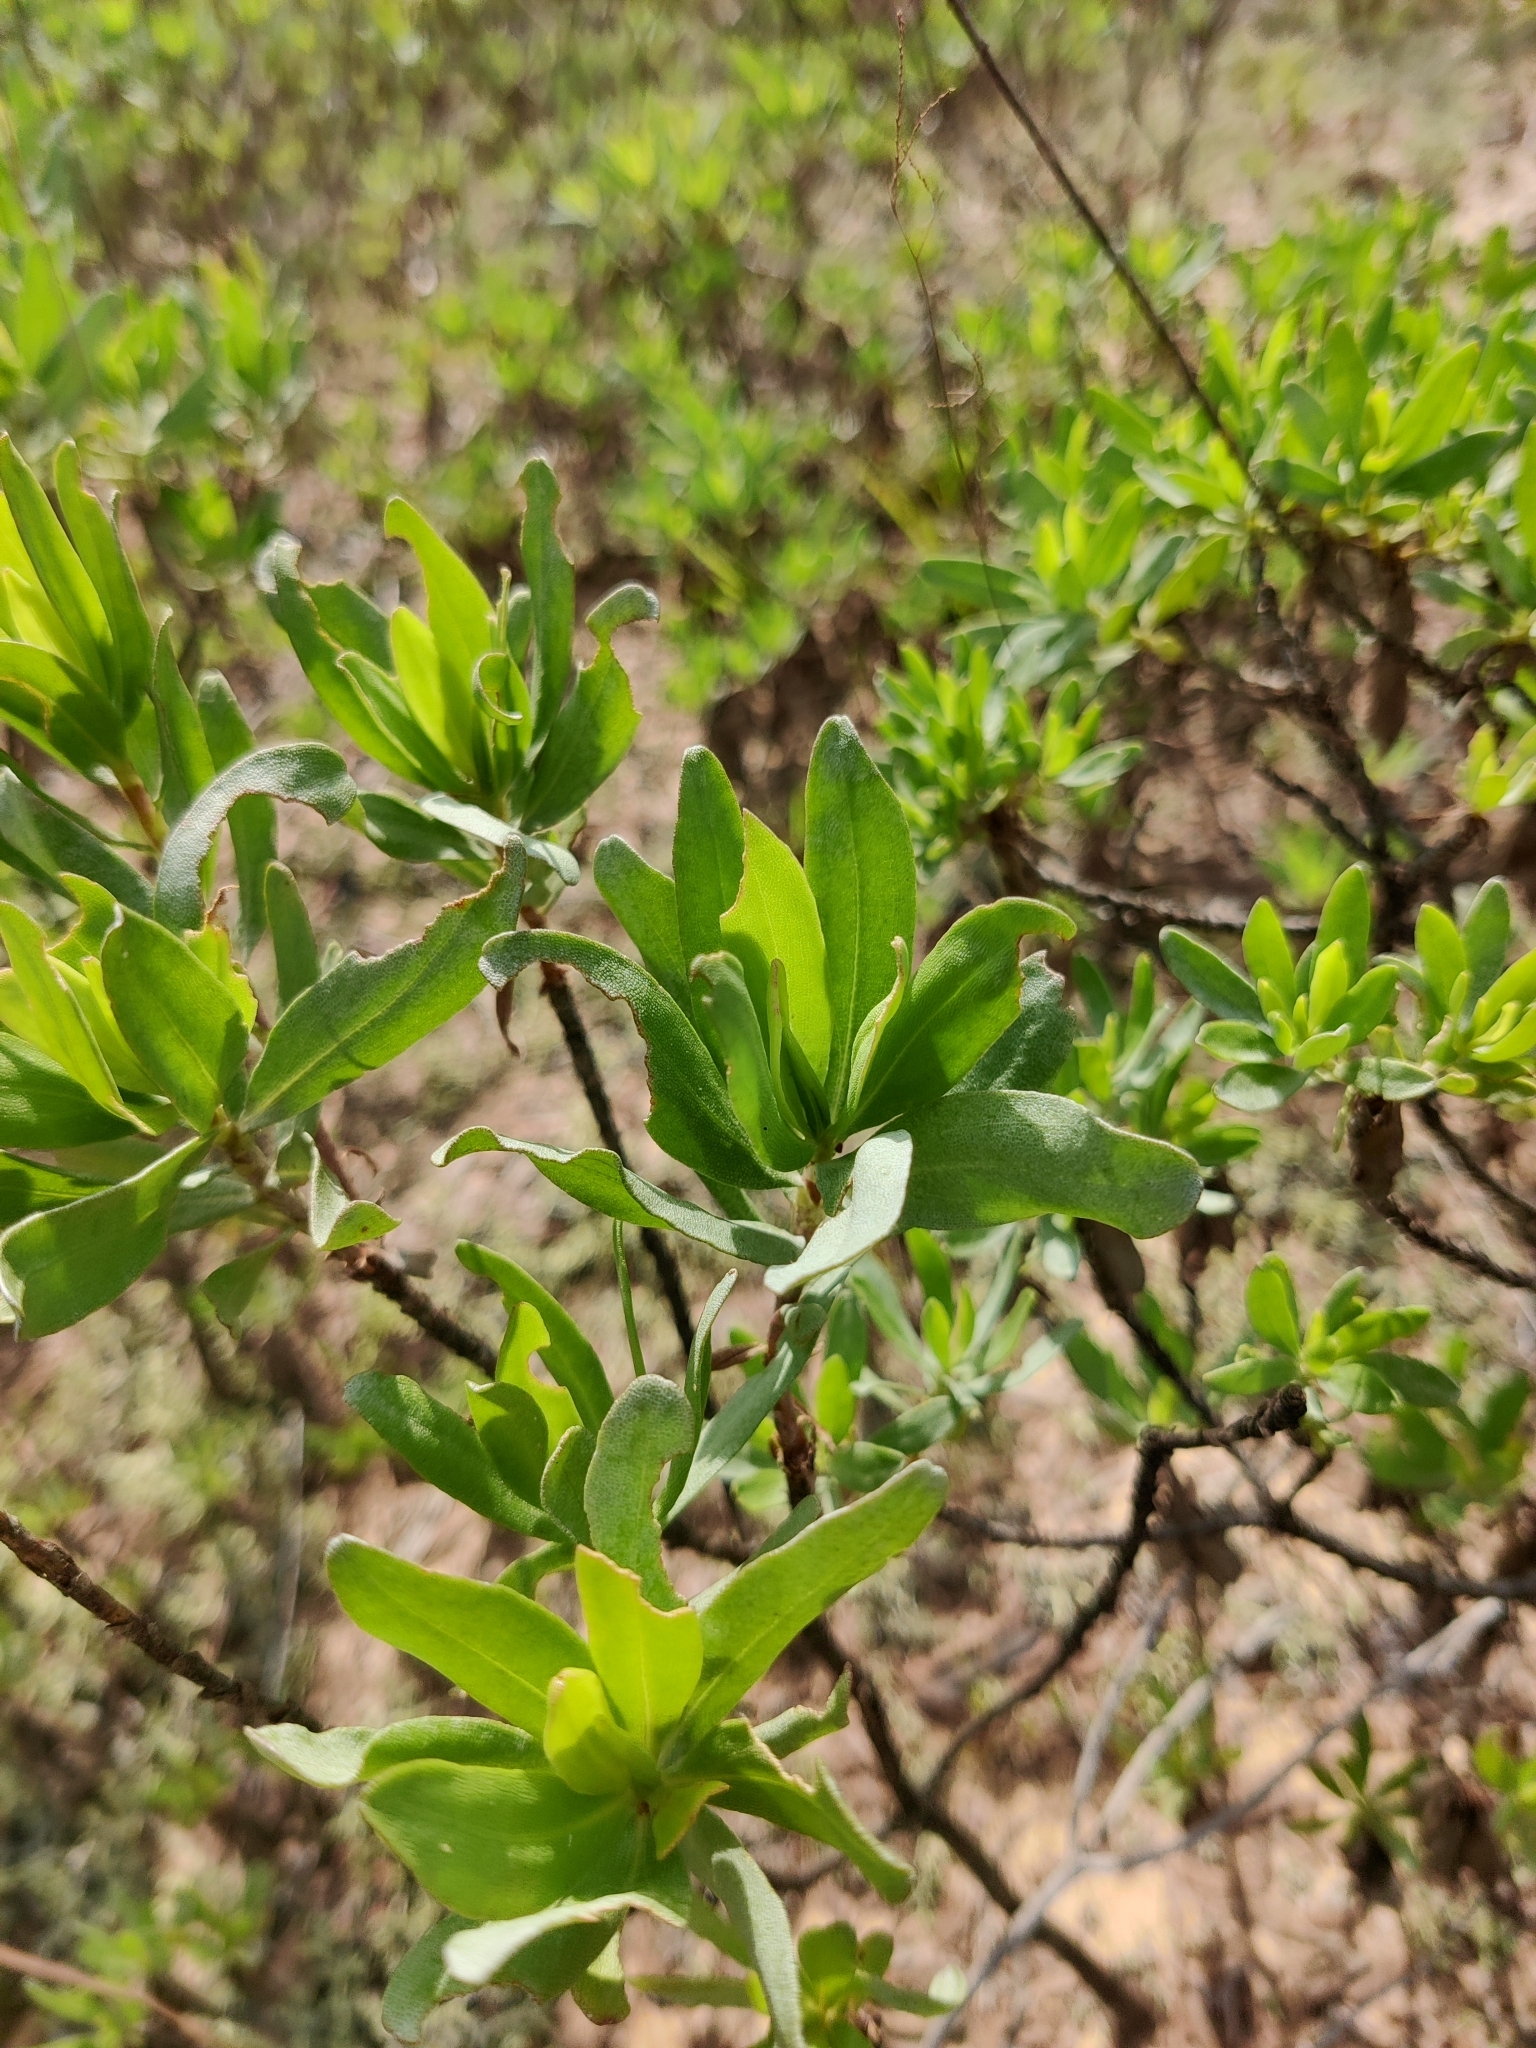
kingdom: Plantae
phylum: Tracheophyta
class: Magnoliopsida
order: Asterales
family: Asteraceae
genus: Chrysoma
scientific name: Chrysoma pauciflosculosa
